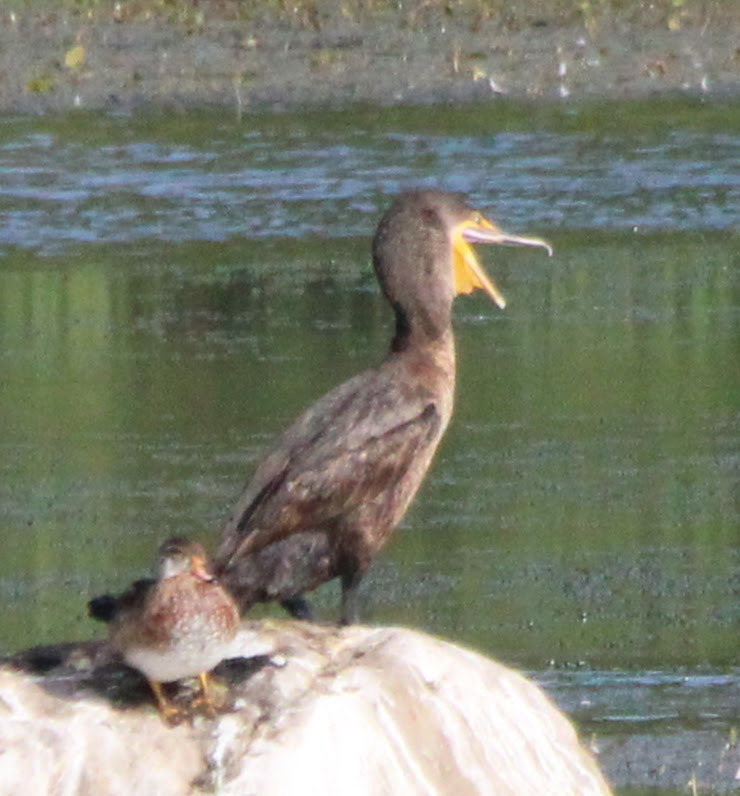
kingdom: Animalia
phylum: Chordata
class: Aves
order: Suliformes
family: Phalacrocoracidae
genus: Phalacrocorax
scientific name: Phalacrocorax auritus
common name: Double-crested cormorant
